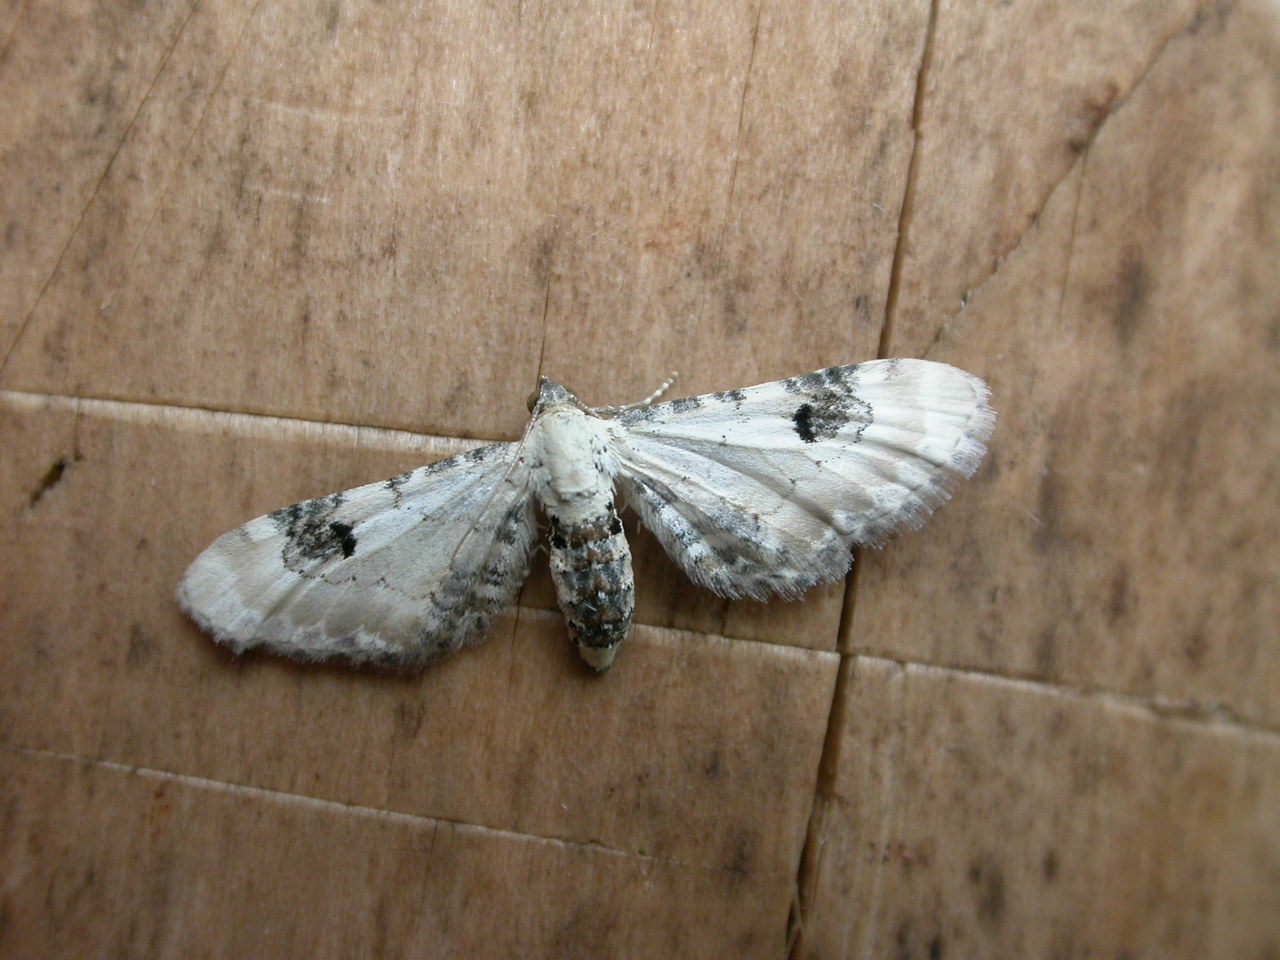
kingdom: Animalia
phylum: Arthropoda
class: Insecta
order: Lepidoptera
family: Geometridae
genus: Eupithecia
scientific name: Eupithecia centaureata
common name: Lime-speck pug
